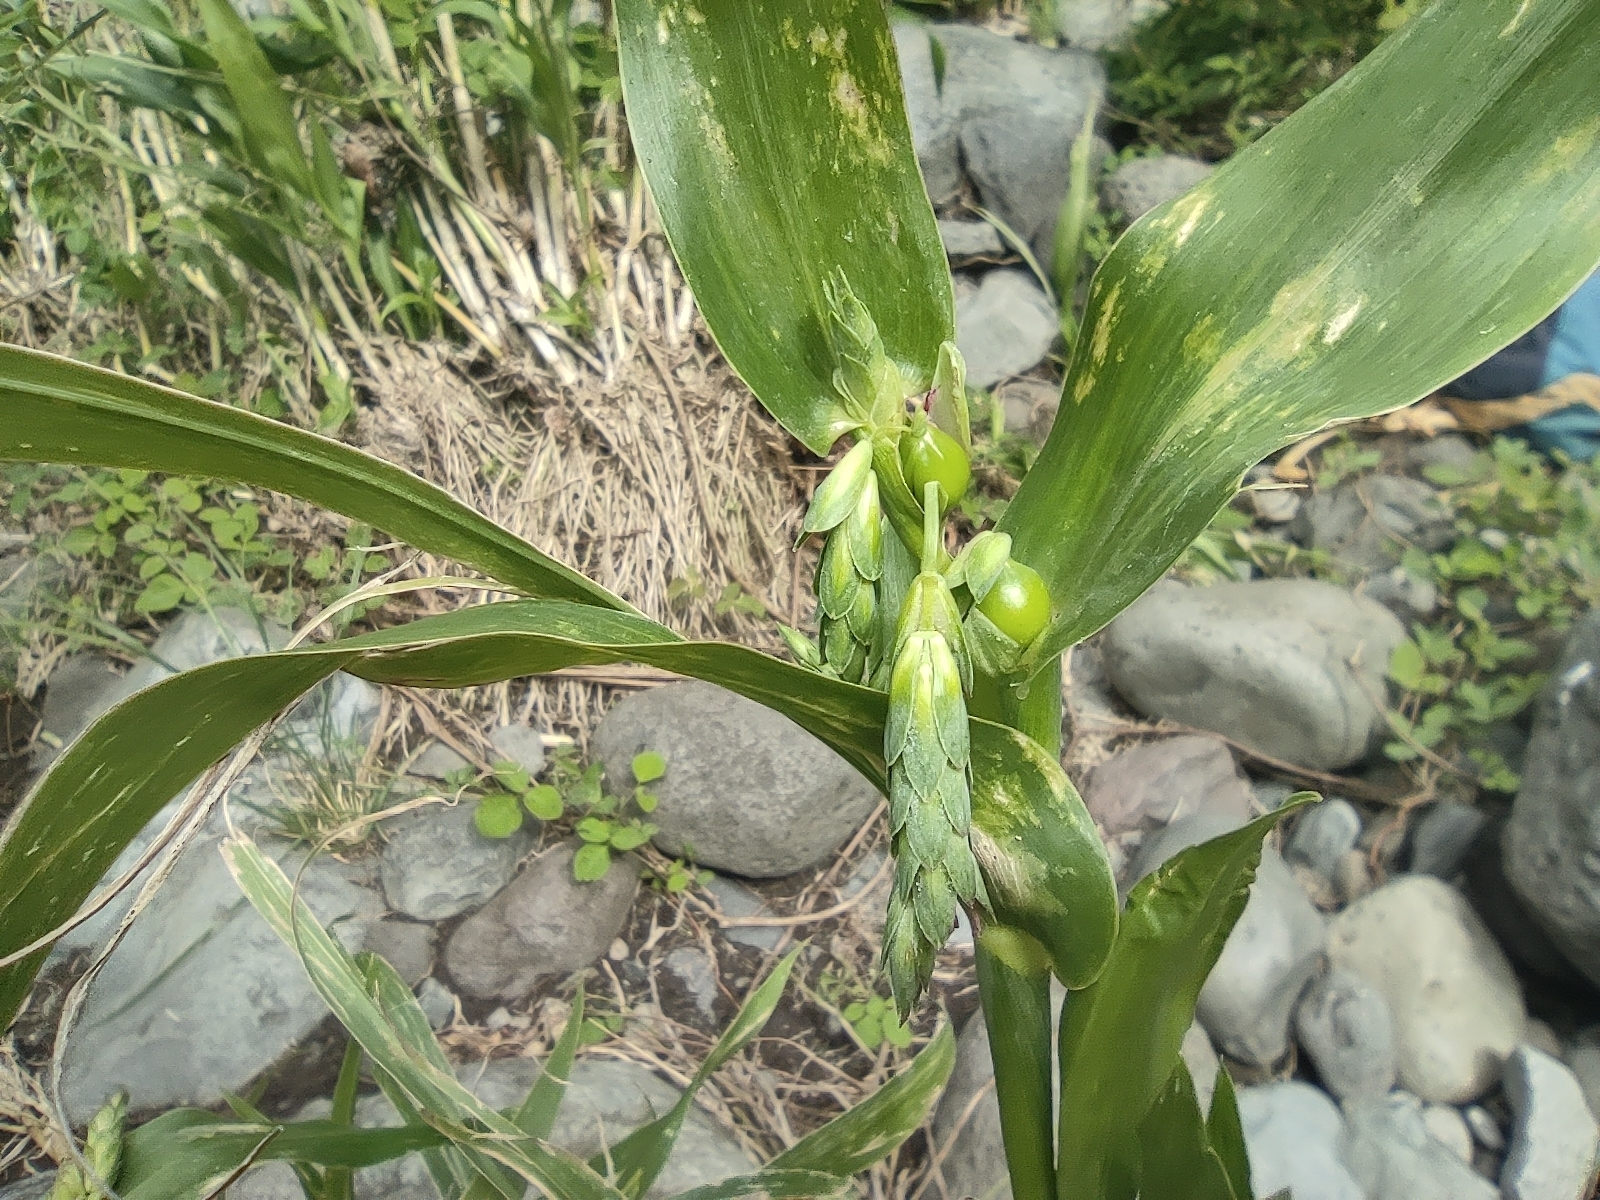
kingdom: Plantae
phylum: Tracheophyta
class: Liliopsida
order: Poales
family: Poaceae
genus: Coix
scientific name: Coix lacryma-jobi
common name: Job's tears
